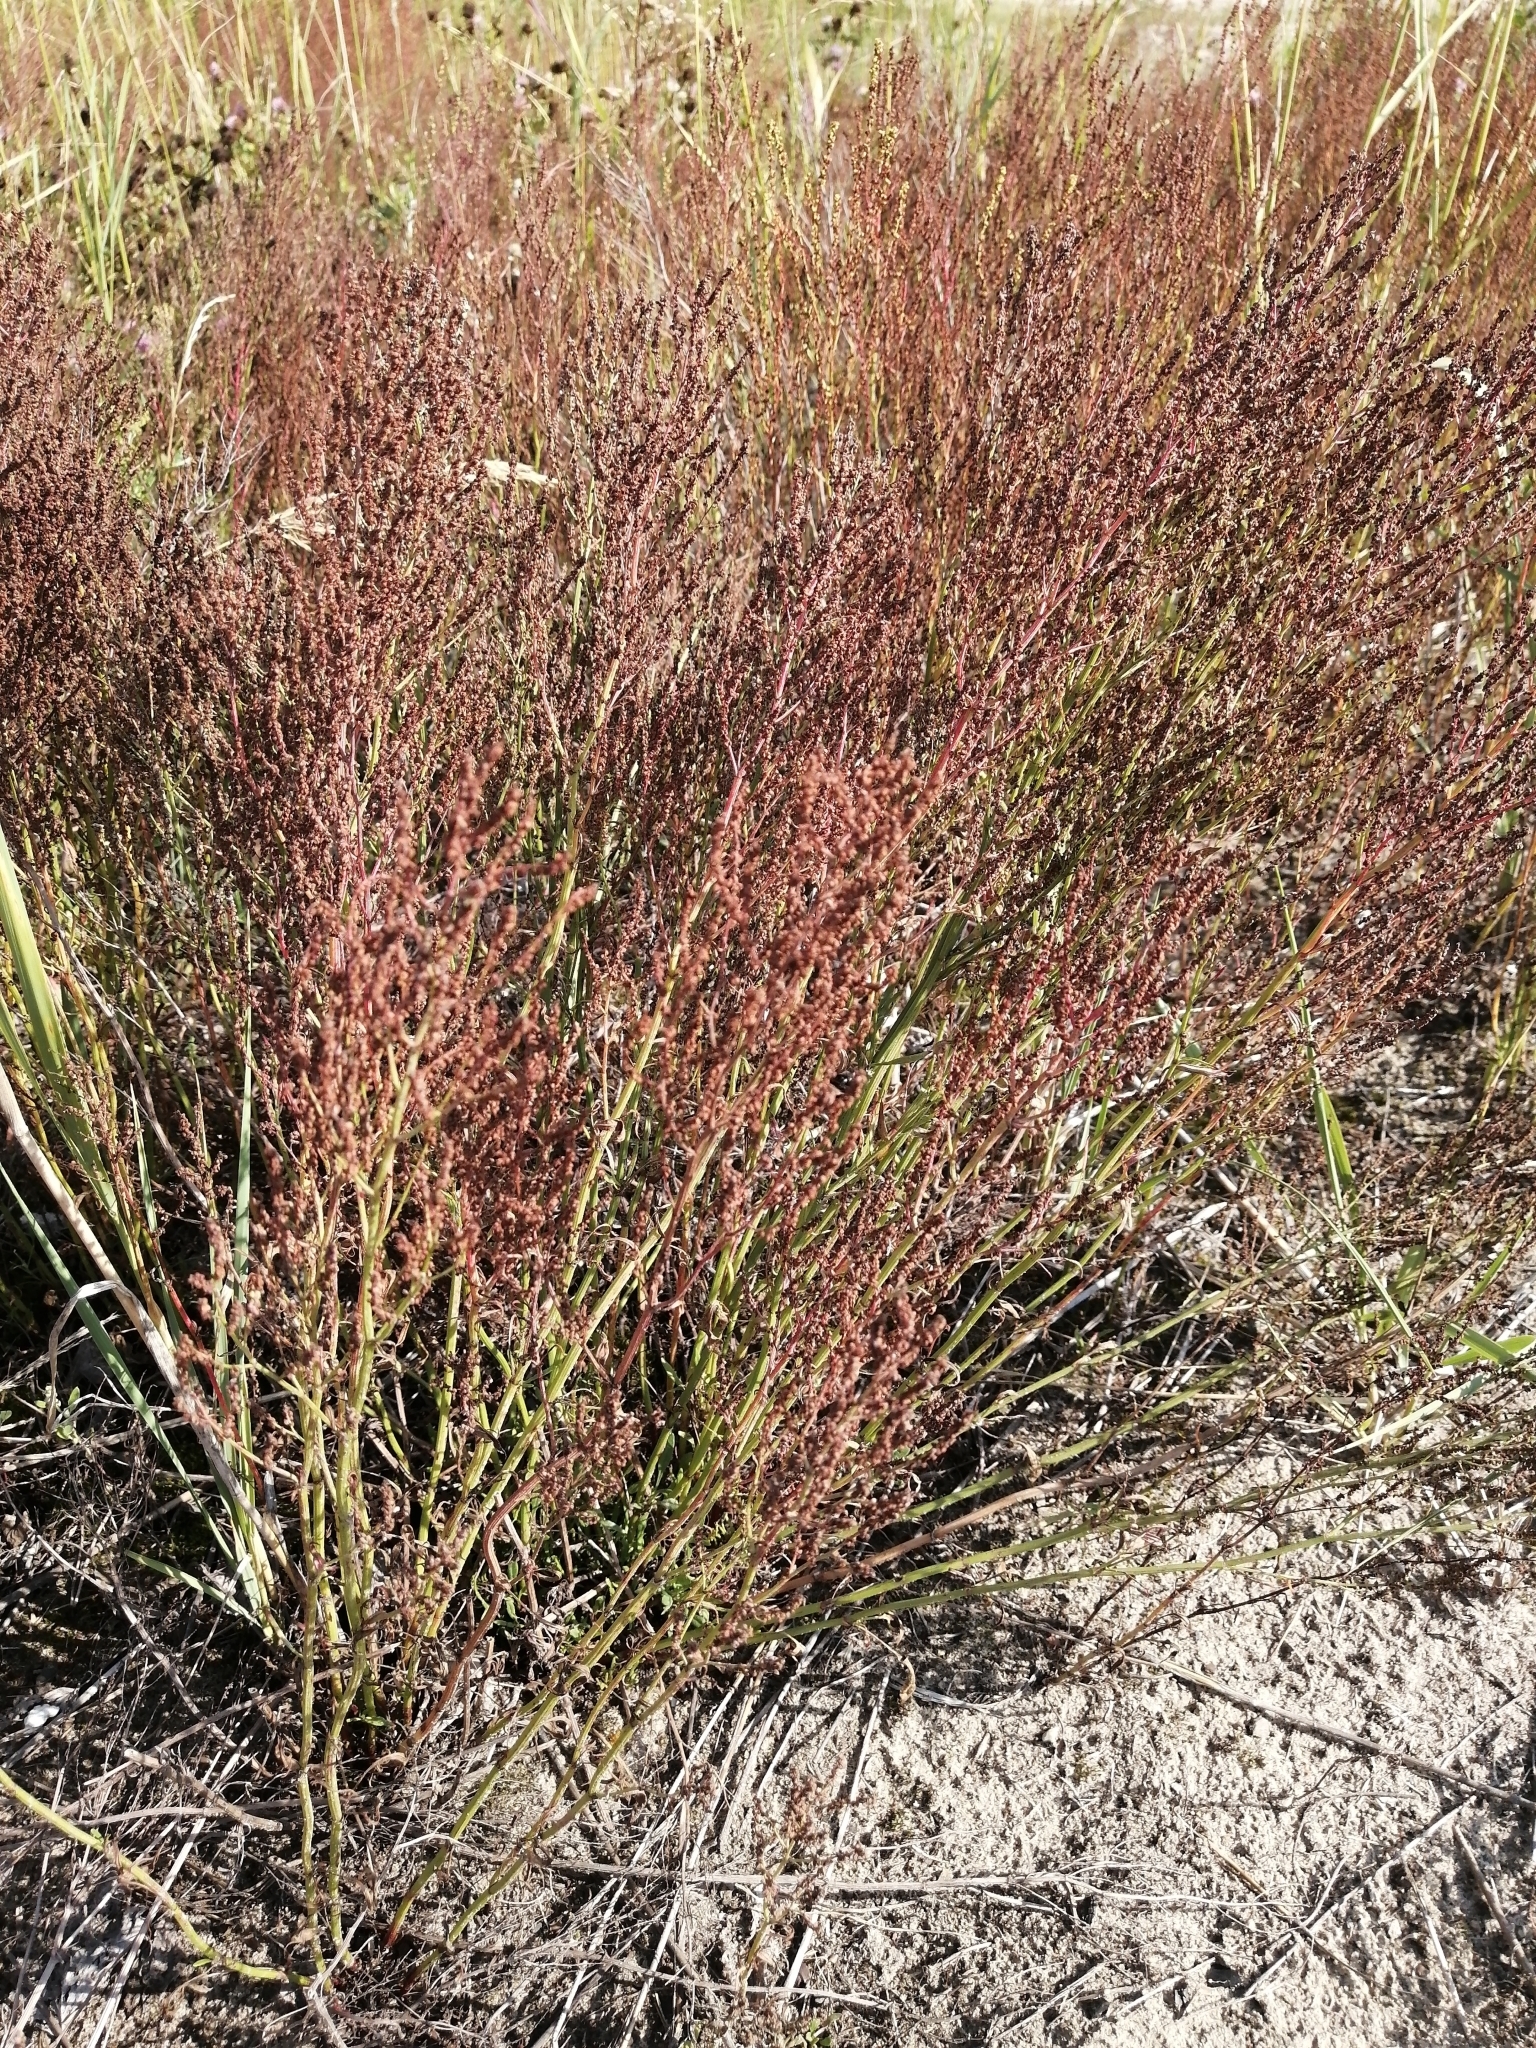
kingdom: Plantae
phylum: Tracheophyta
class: Magnoliopsida
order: Caryophyllales
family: Polygonaceae
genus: Rumex
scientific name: Rumex acetosella
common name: Common sheep sorrel
